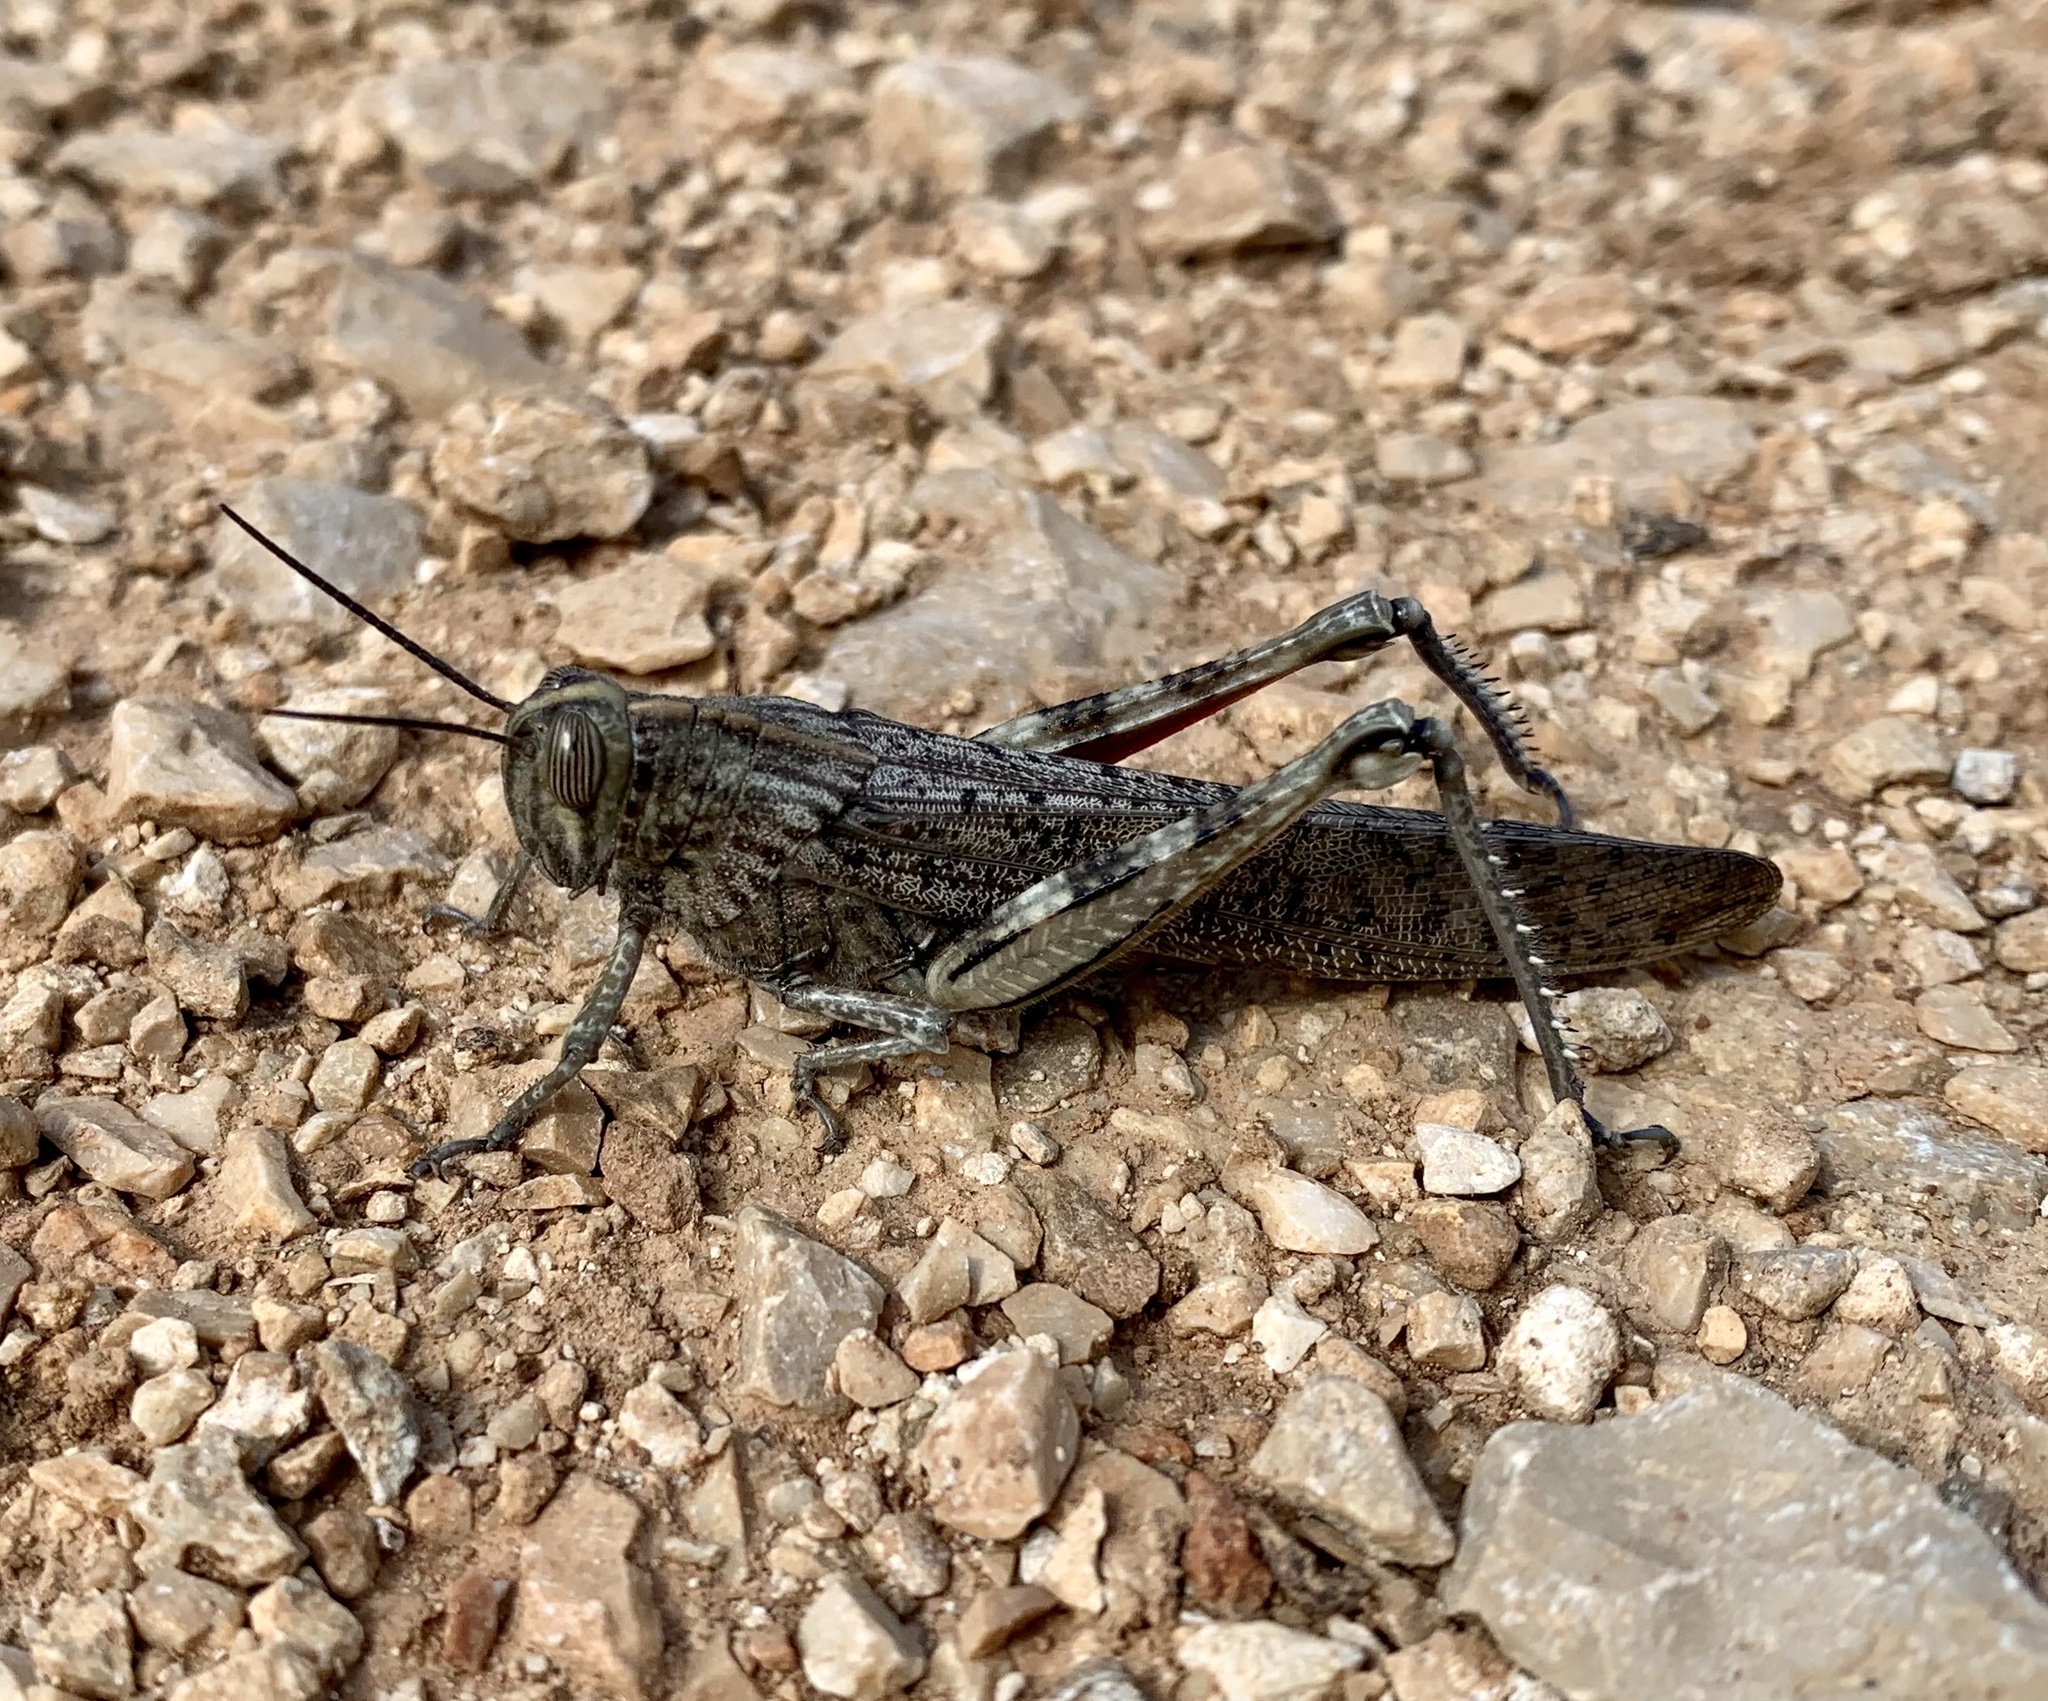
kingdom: Animalia
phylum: Arthropoda
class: Insecta
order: Orthoptera
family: Acrididae
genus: Anacridium
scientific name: Anacridium aegyptium
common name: Egyptian grasshopper
